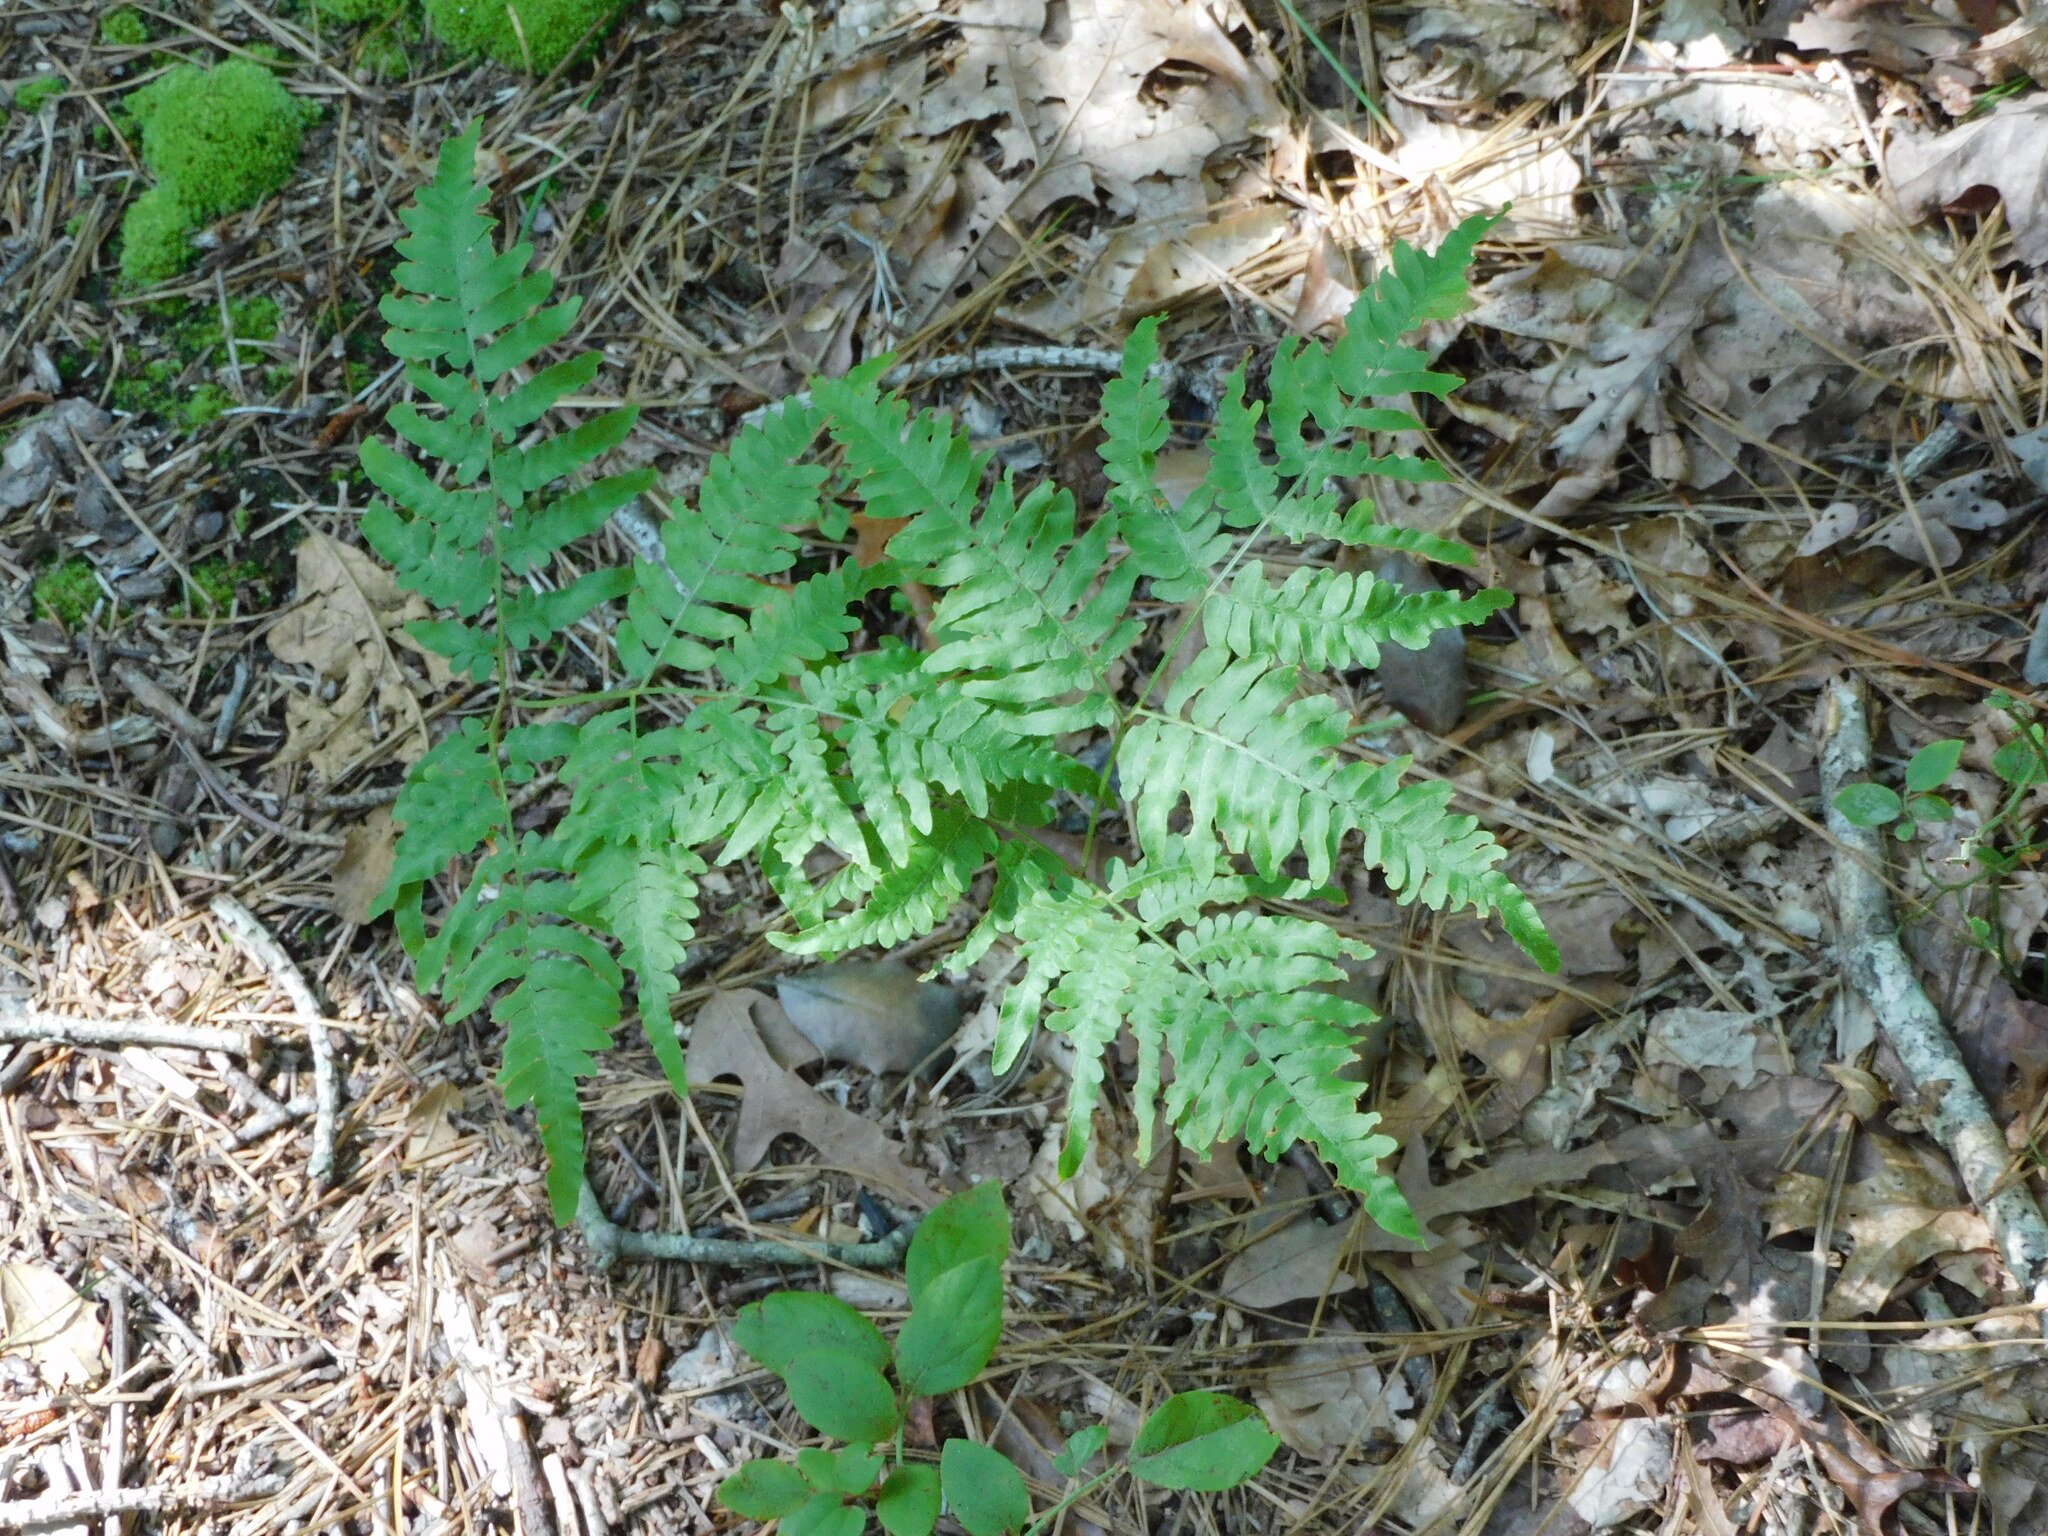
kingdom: Plantae
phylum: Tracheophyta
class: Polypodiopsida
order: Polypodiales
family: Dennstaedtiaceae
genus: Pteridium
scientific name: Pteridium aquilinum
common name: Bracken
